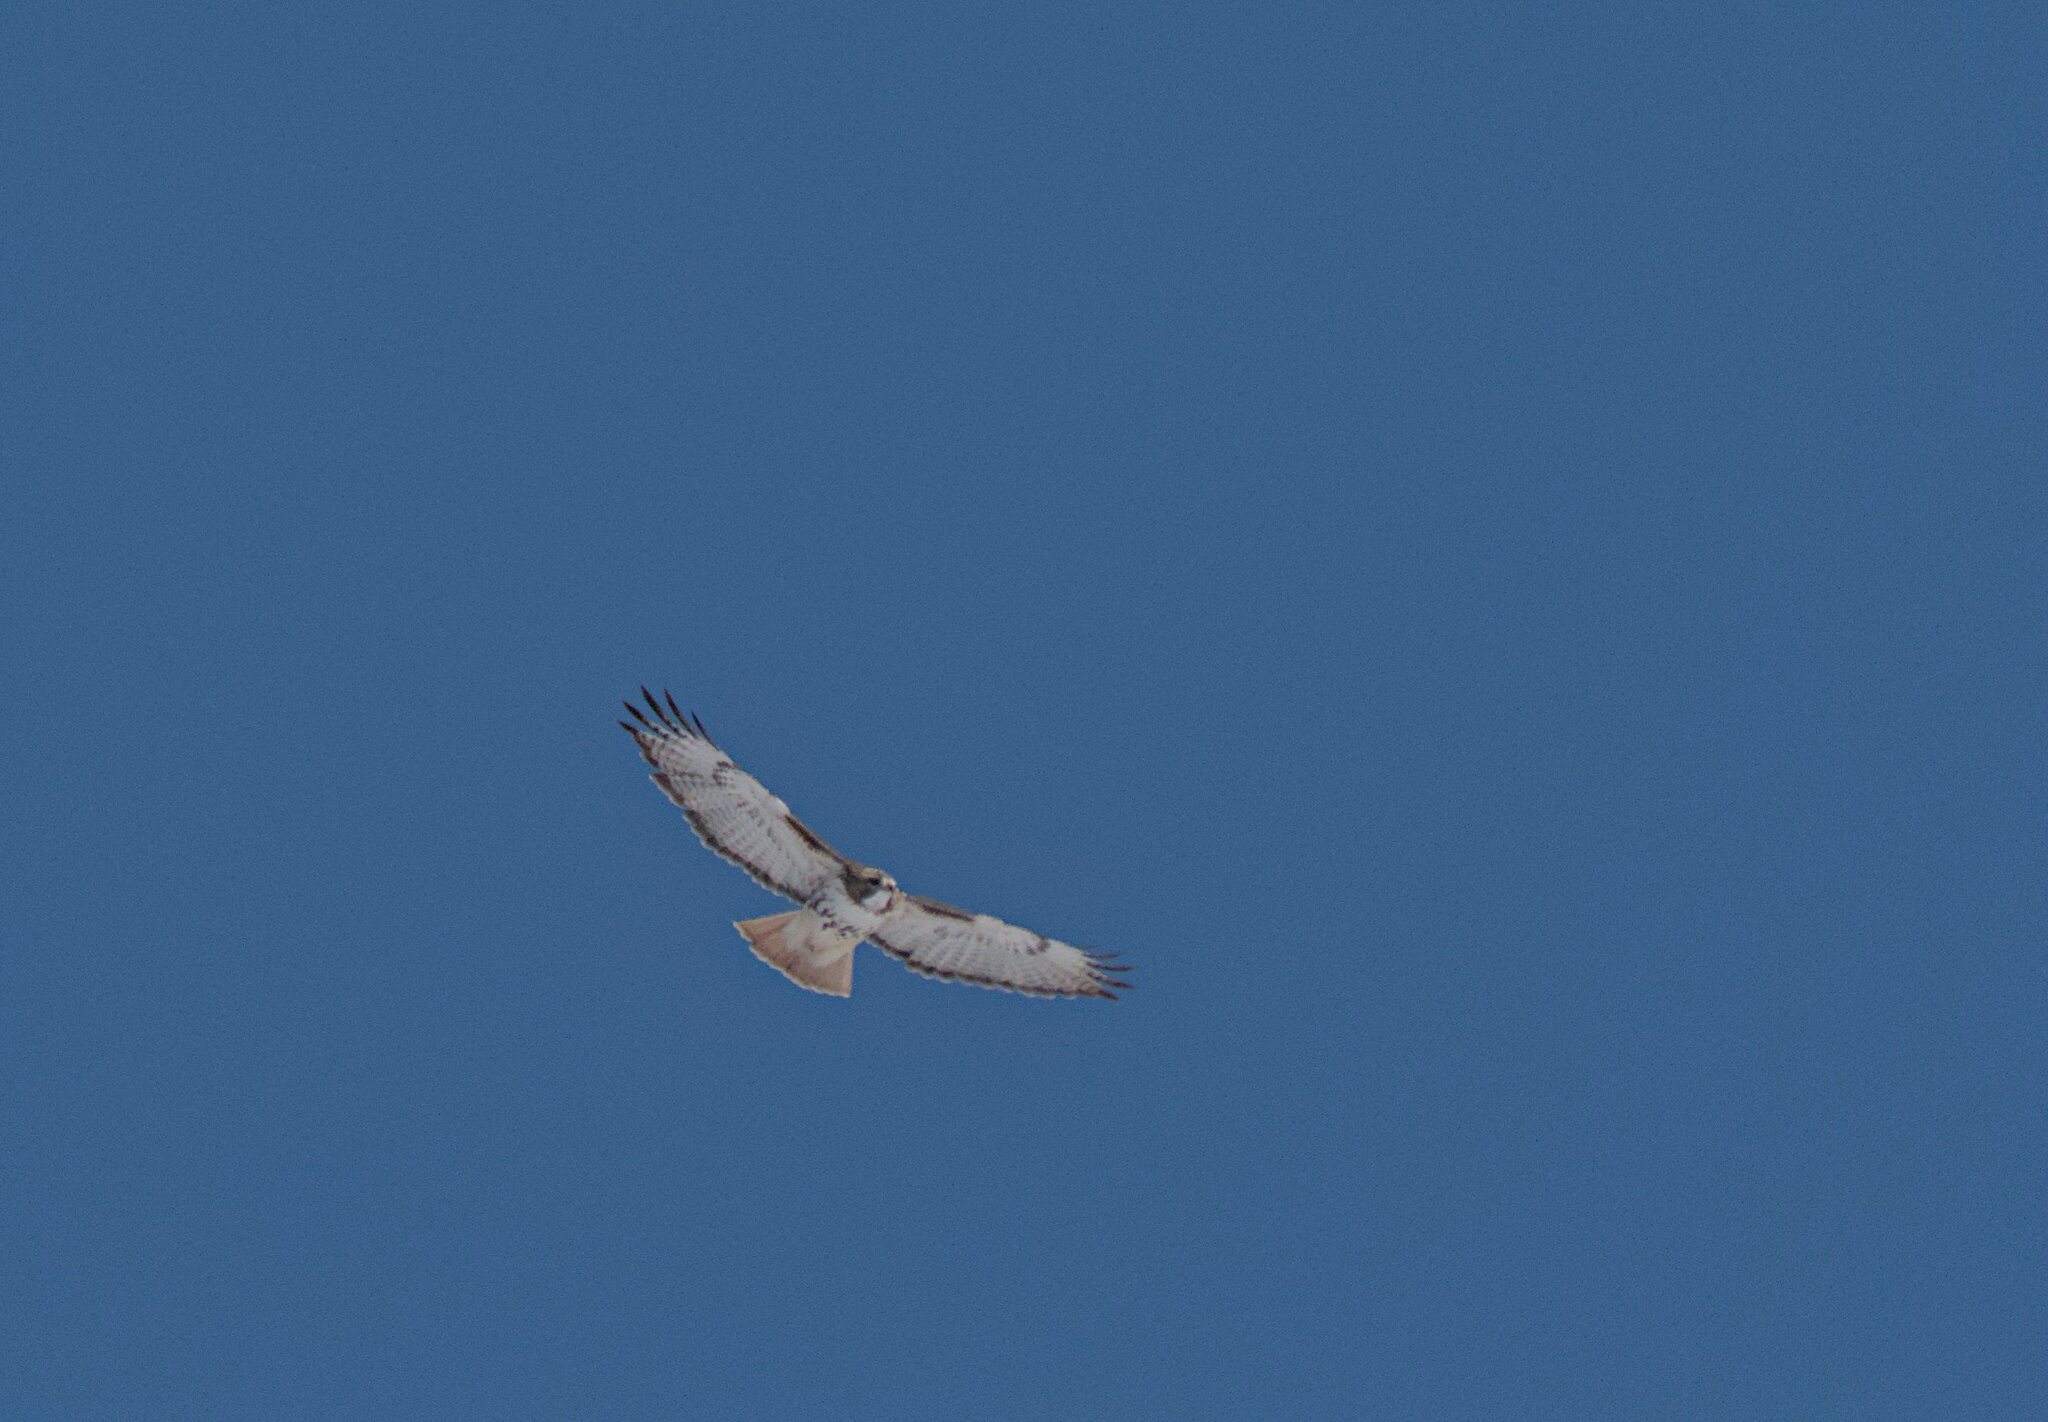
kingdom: Animalia
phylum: Chordata
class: Aves
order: Accipitriformes
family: Accipitridae
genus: Buteo
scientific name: Buteo jamaicensis
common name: Red-tailed hawk
